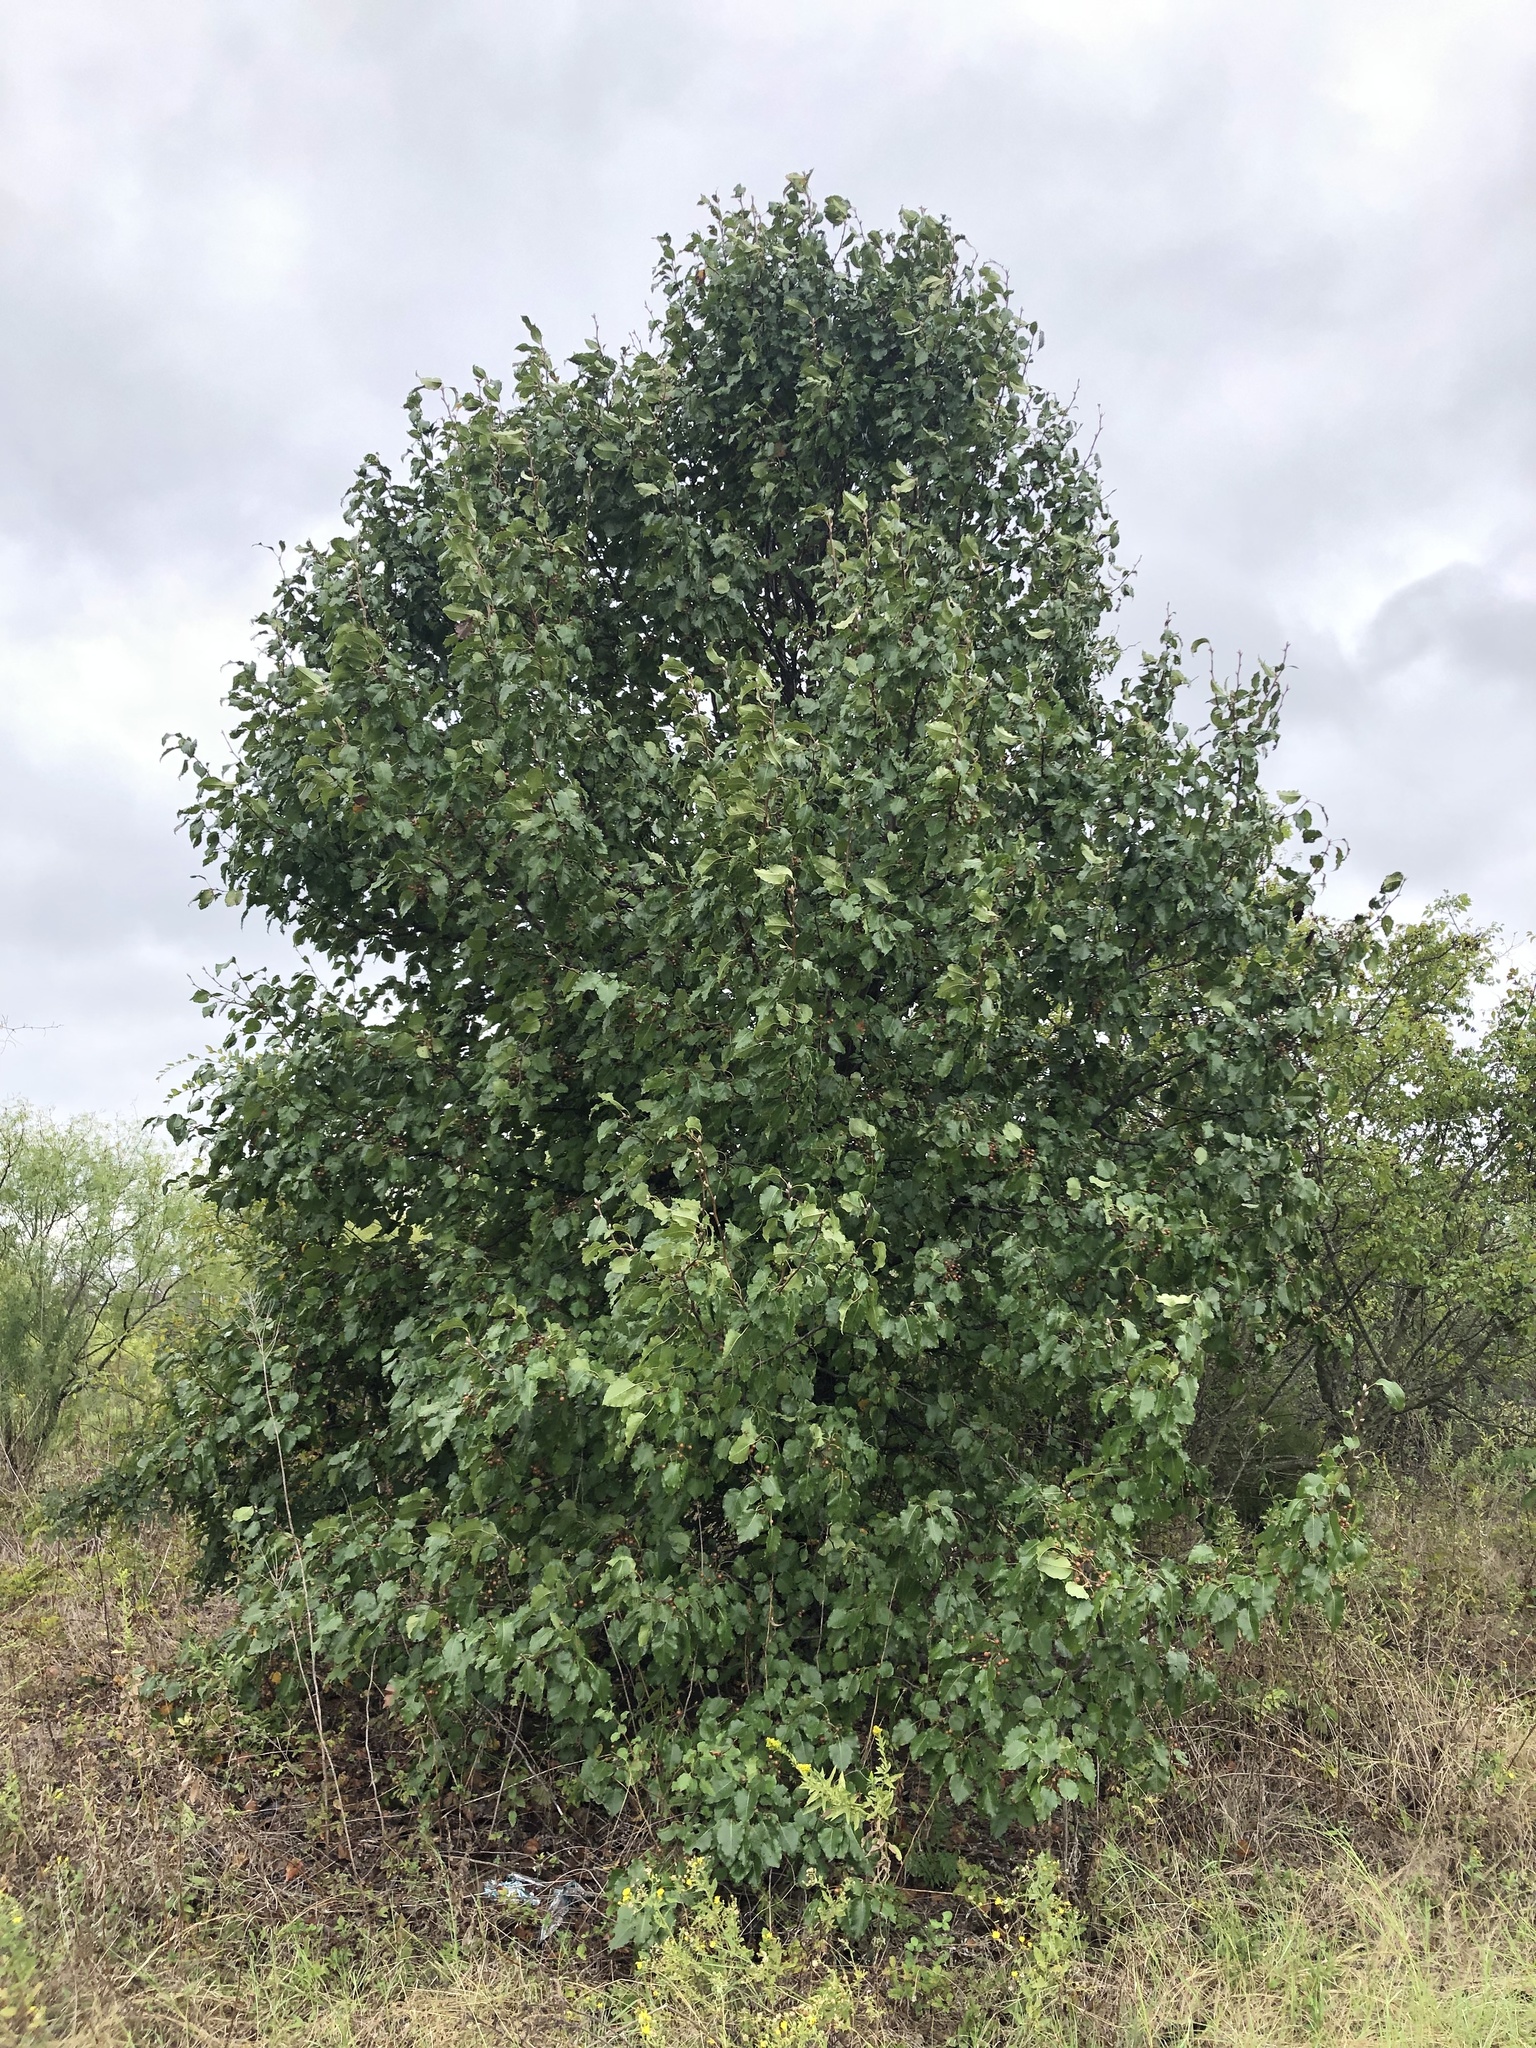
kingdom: Plantae
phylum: Tracheophyta
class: Magnoliopsida
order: Rosales
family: Rosaceae
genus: Pyrus
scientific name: Pyrus calleryana
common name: Callery pear
